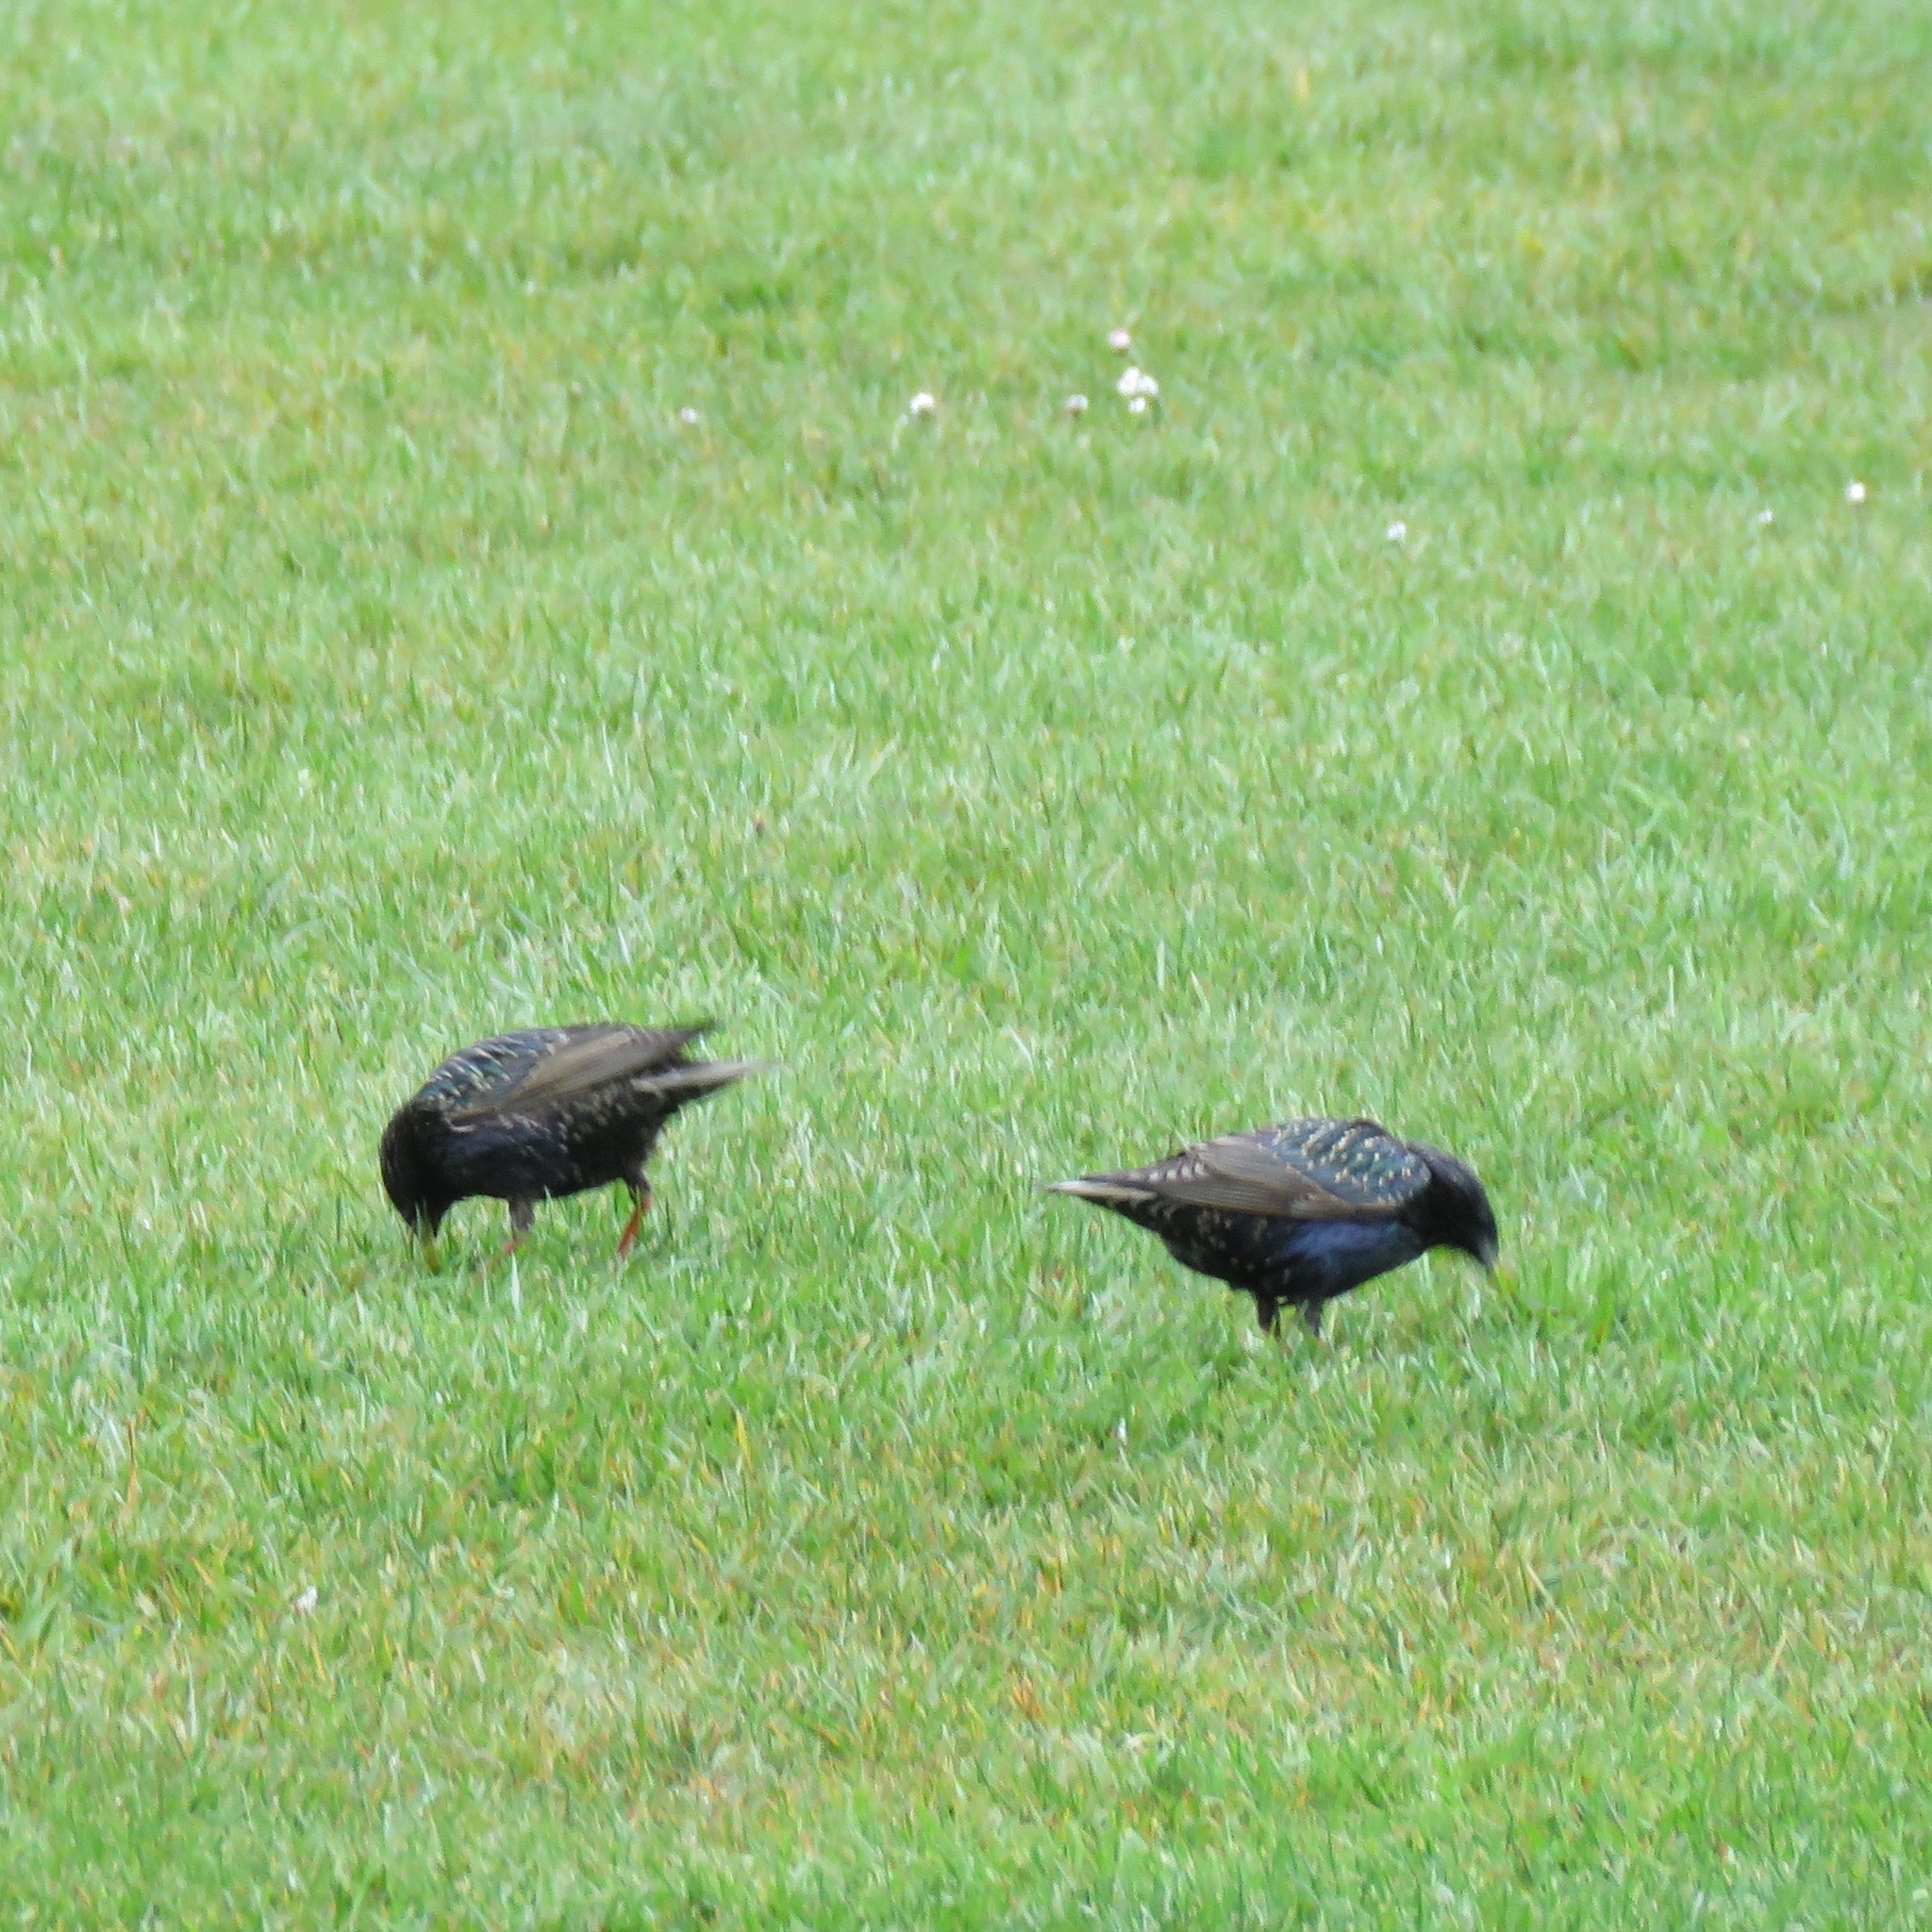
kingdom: Animalia
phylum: Chordata
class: Aves
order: Passeriformes
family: Sturnidae
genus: Sturnus
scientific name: Sturnus vulgaris
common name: Common starling
